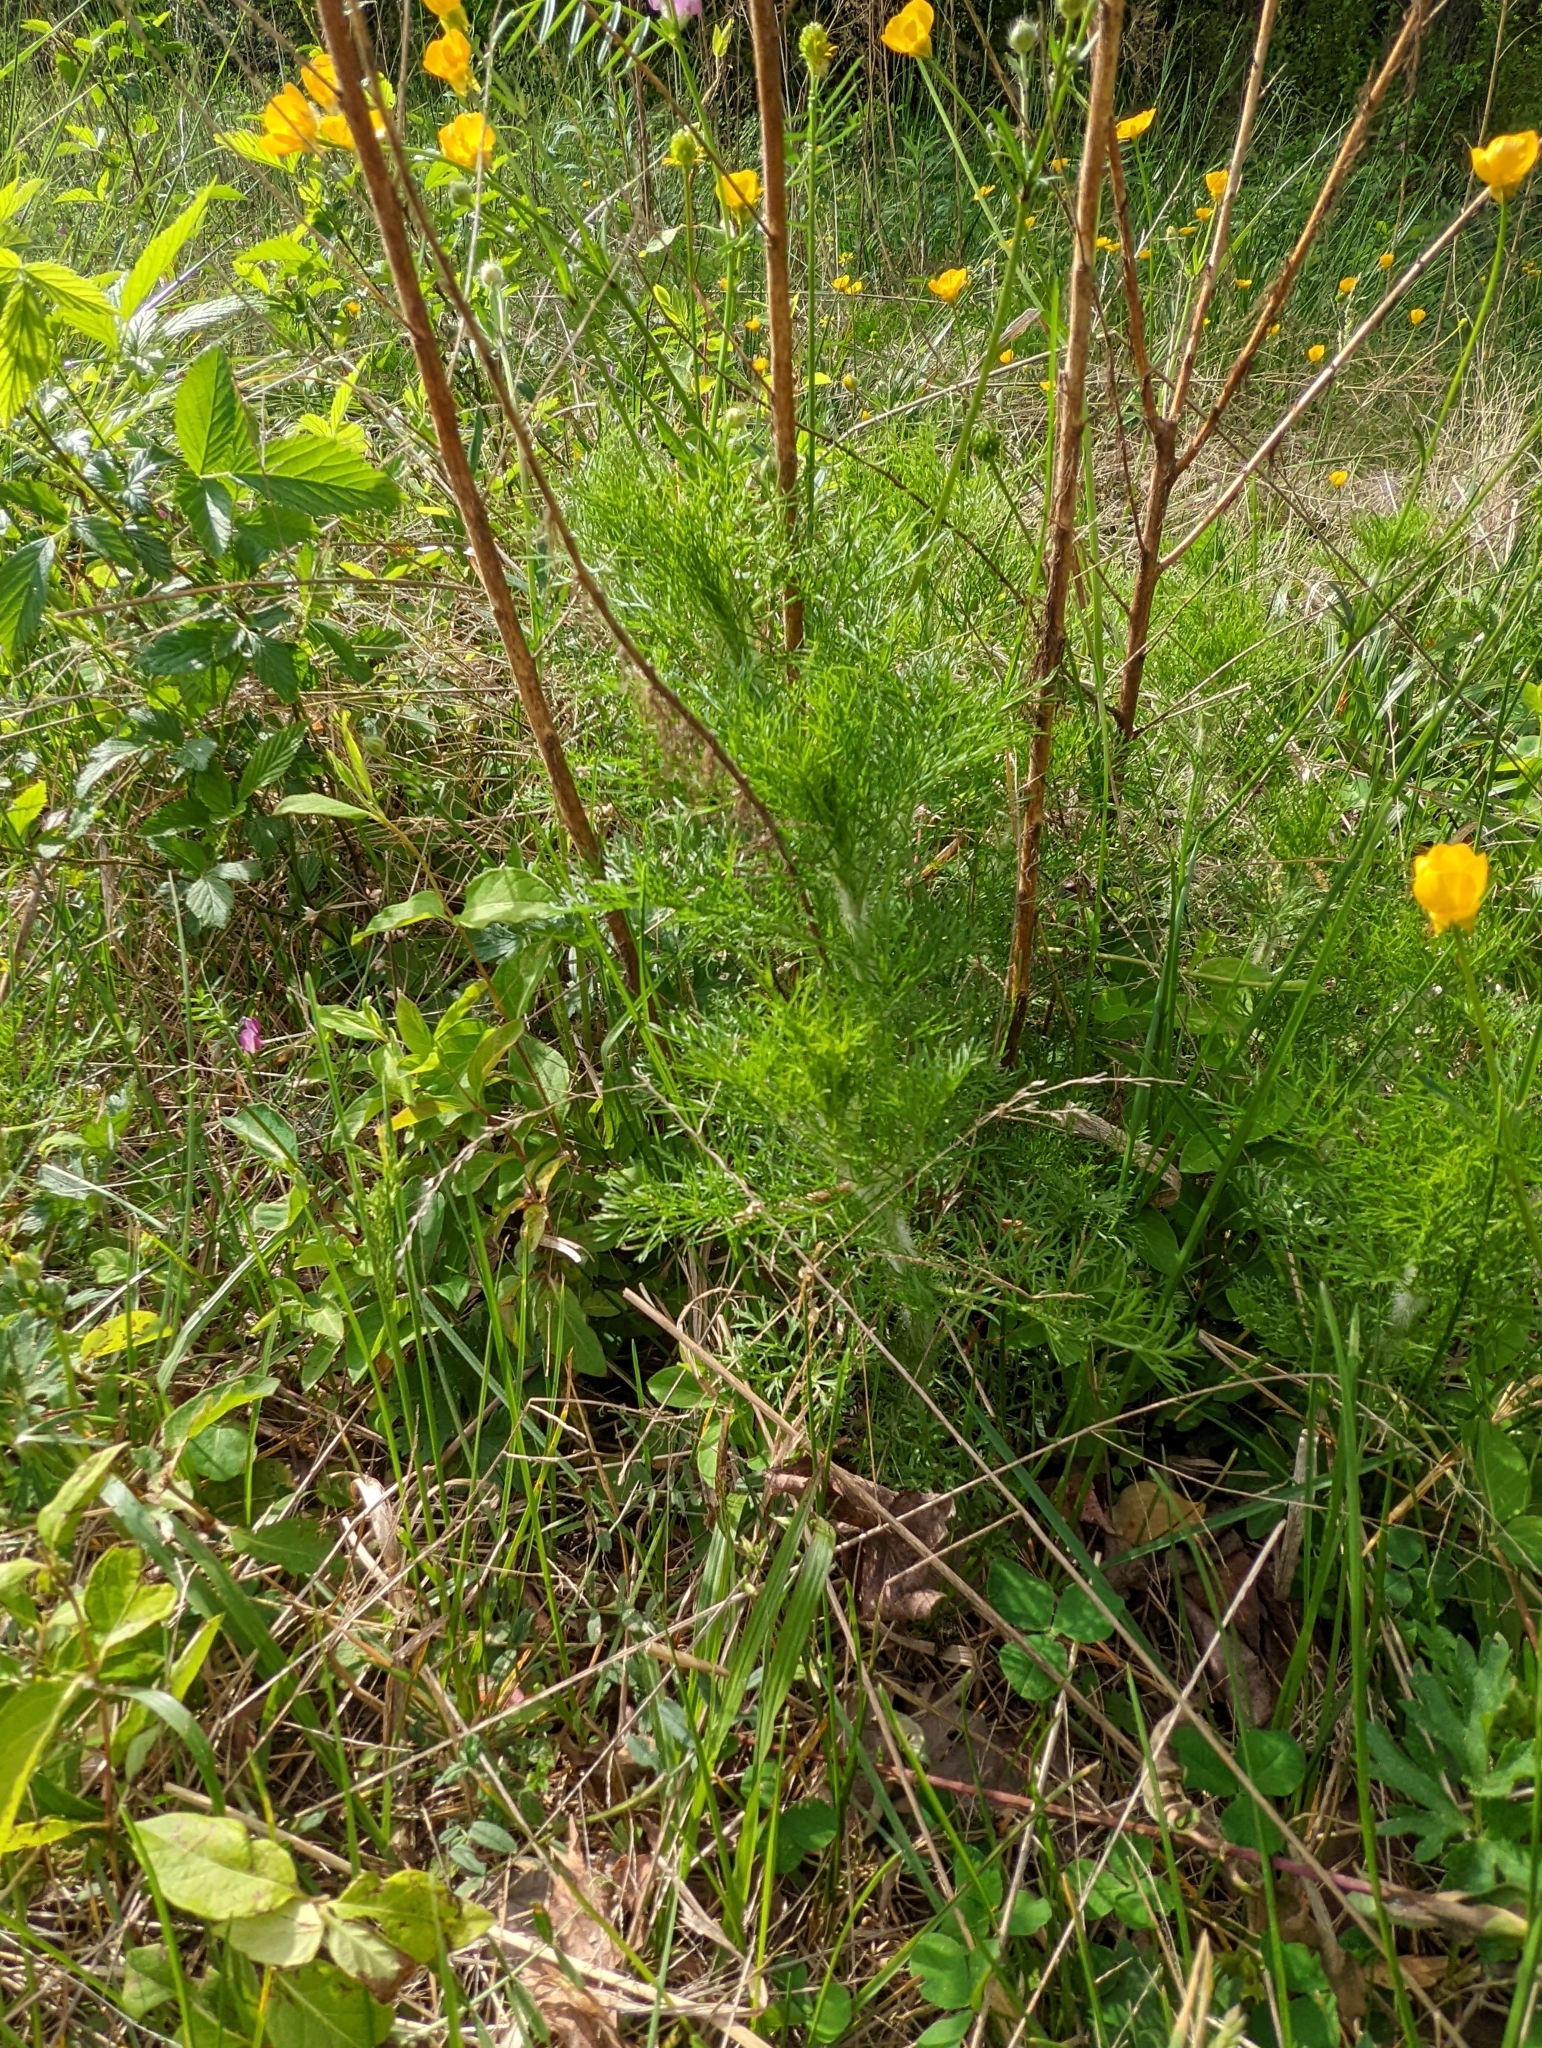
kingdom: Plantae
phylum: Tracheophyta
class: Magnoliopsida
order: Asterales
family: Asteraceae
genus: Eupatorium
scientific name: Eupatorium capillifolium
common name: Dog-fennel
